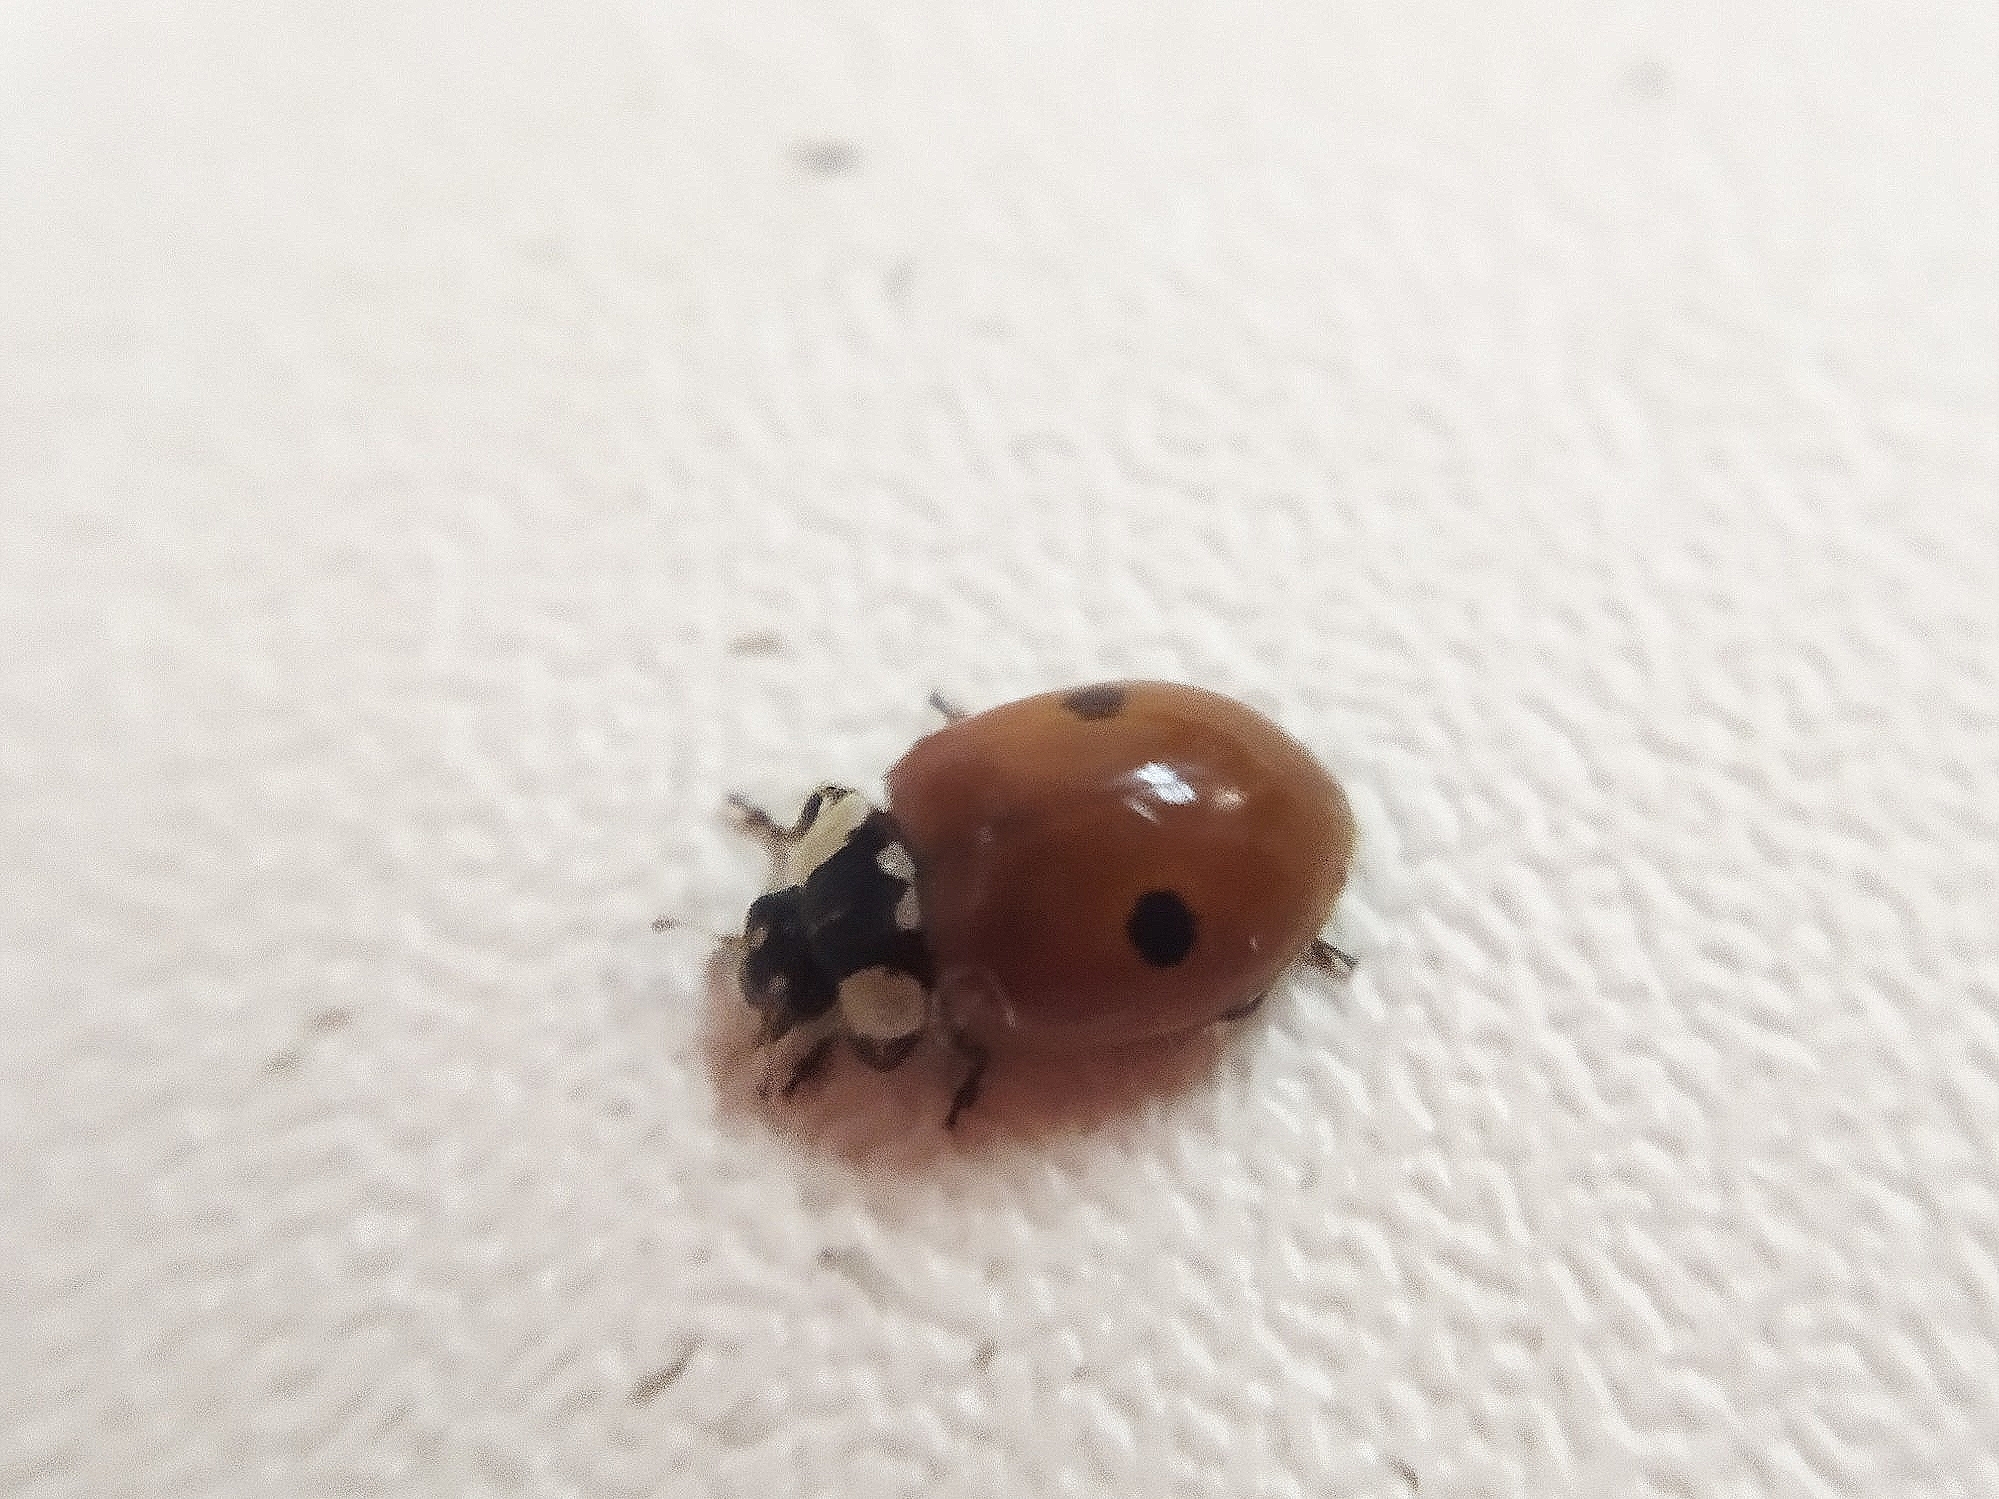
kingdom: Animalia
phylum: Arthropoda
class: Insecta
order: Coleoptera
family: Coccinellidae
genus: Adalia
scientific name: Adalia bipunctata
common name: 2-spot ladybird
